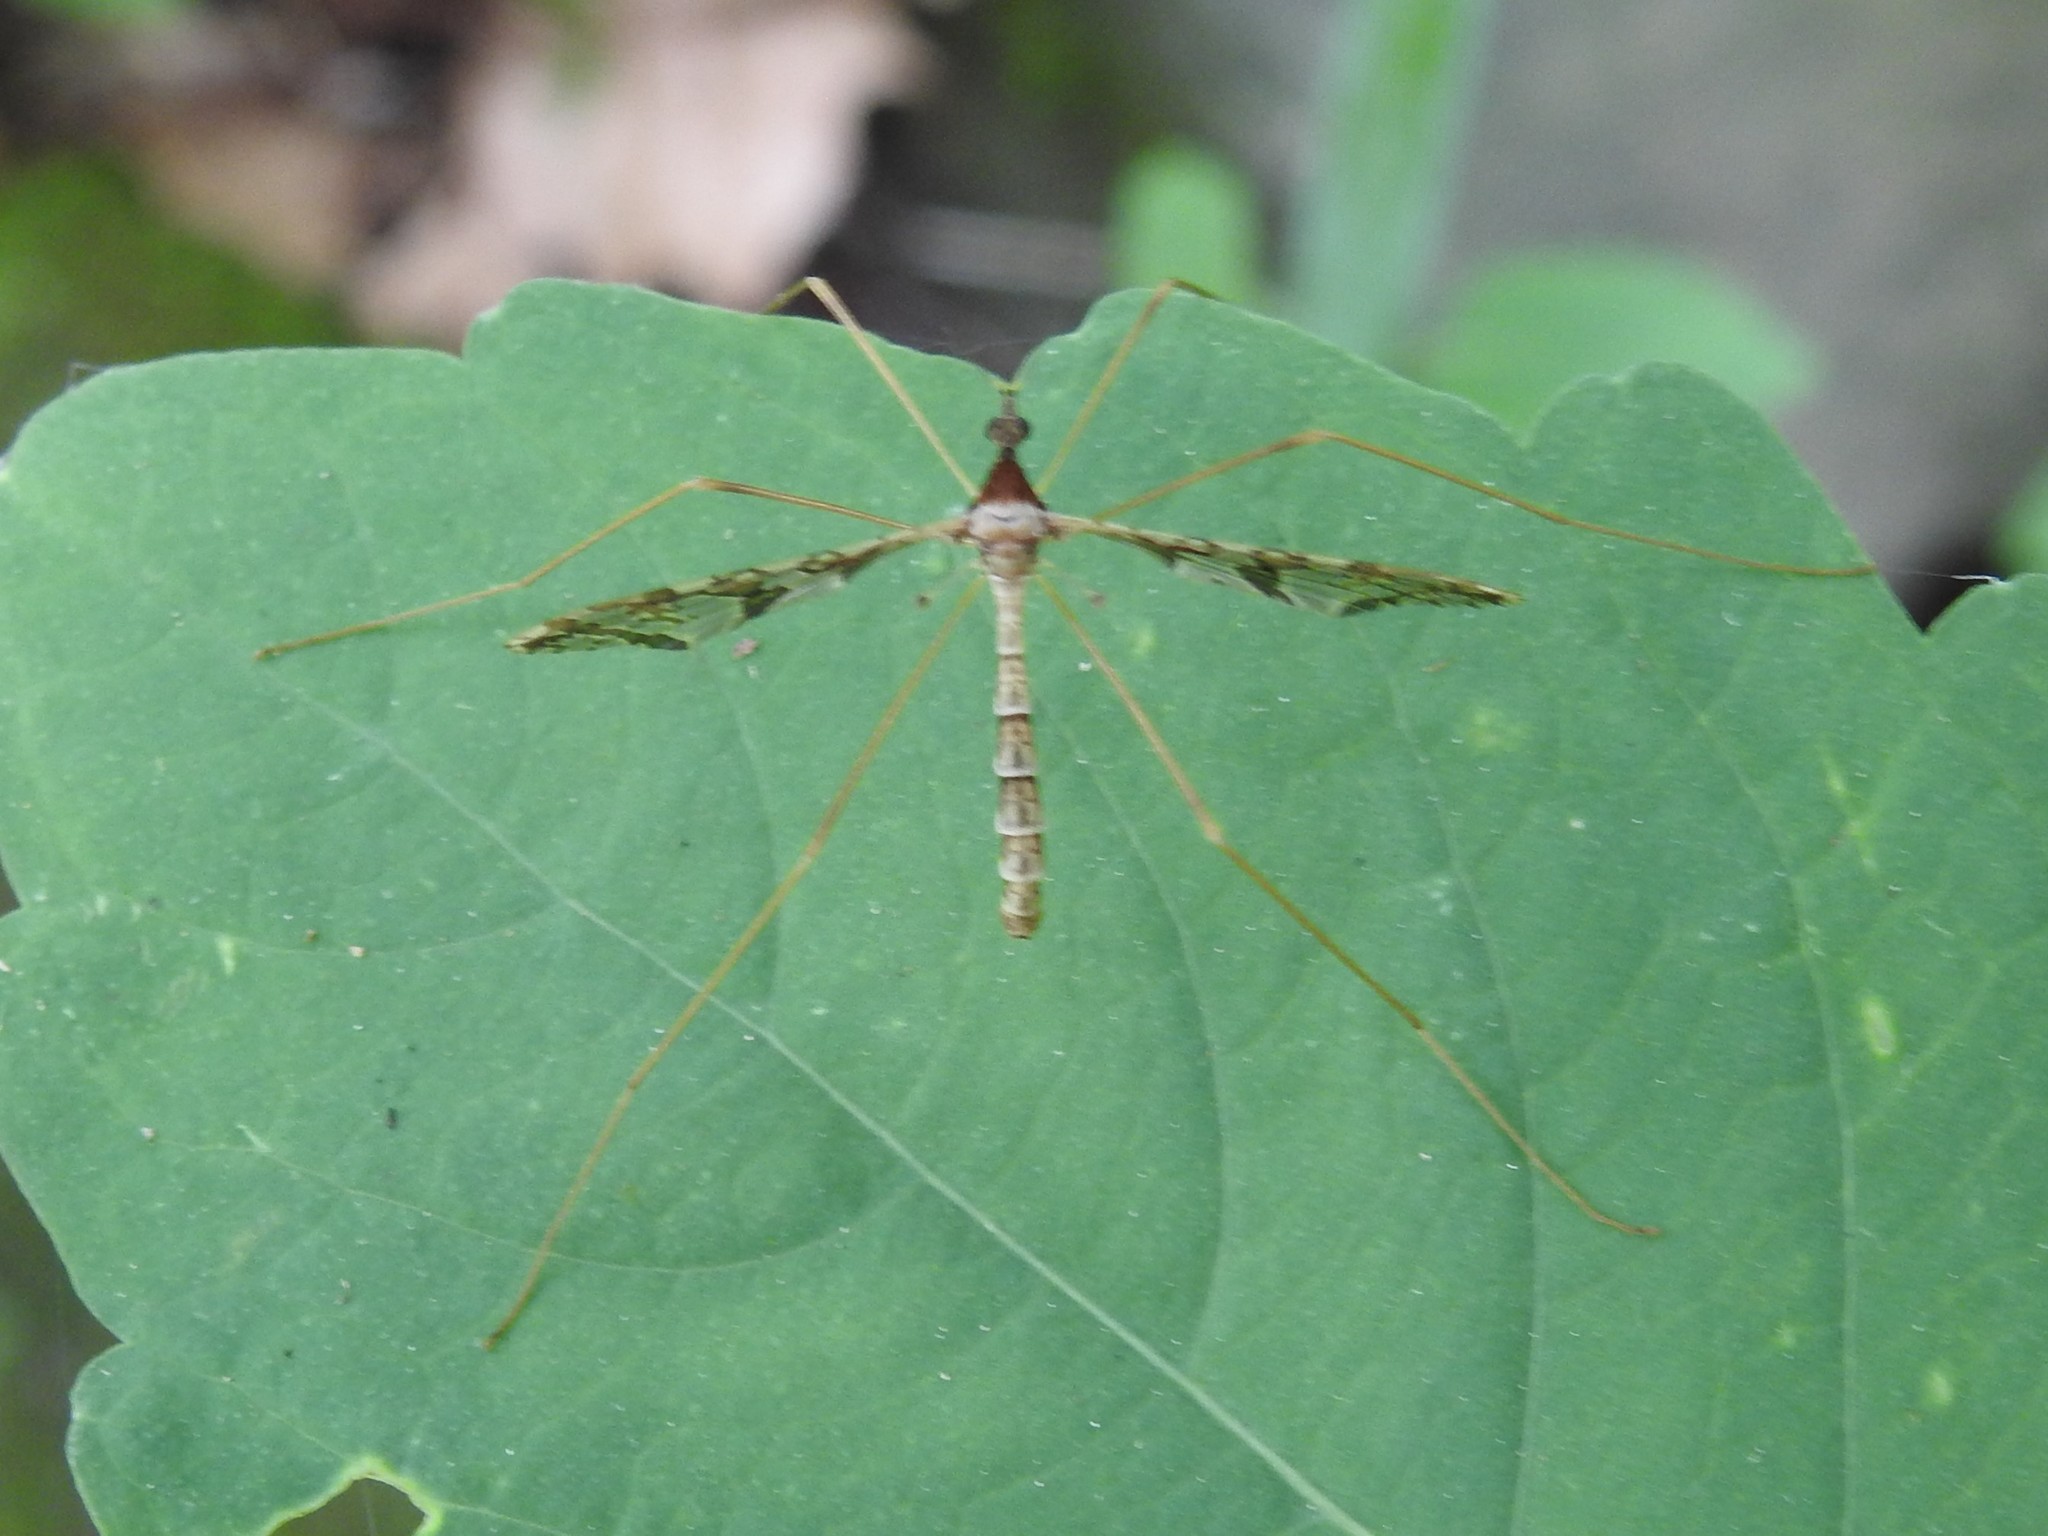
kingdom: Animalia
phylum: Arthropoda
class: Insecta
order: Diptera
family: Limoniidae
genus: Epiphragma
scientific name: Epiphragma solatrix
